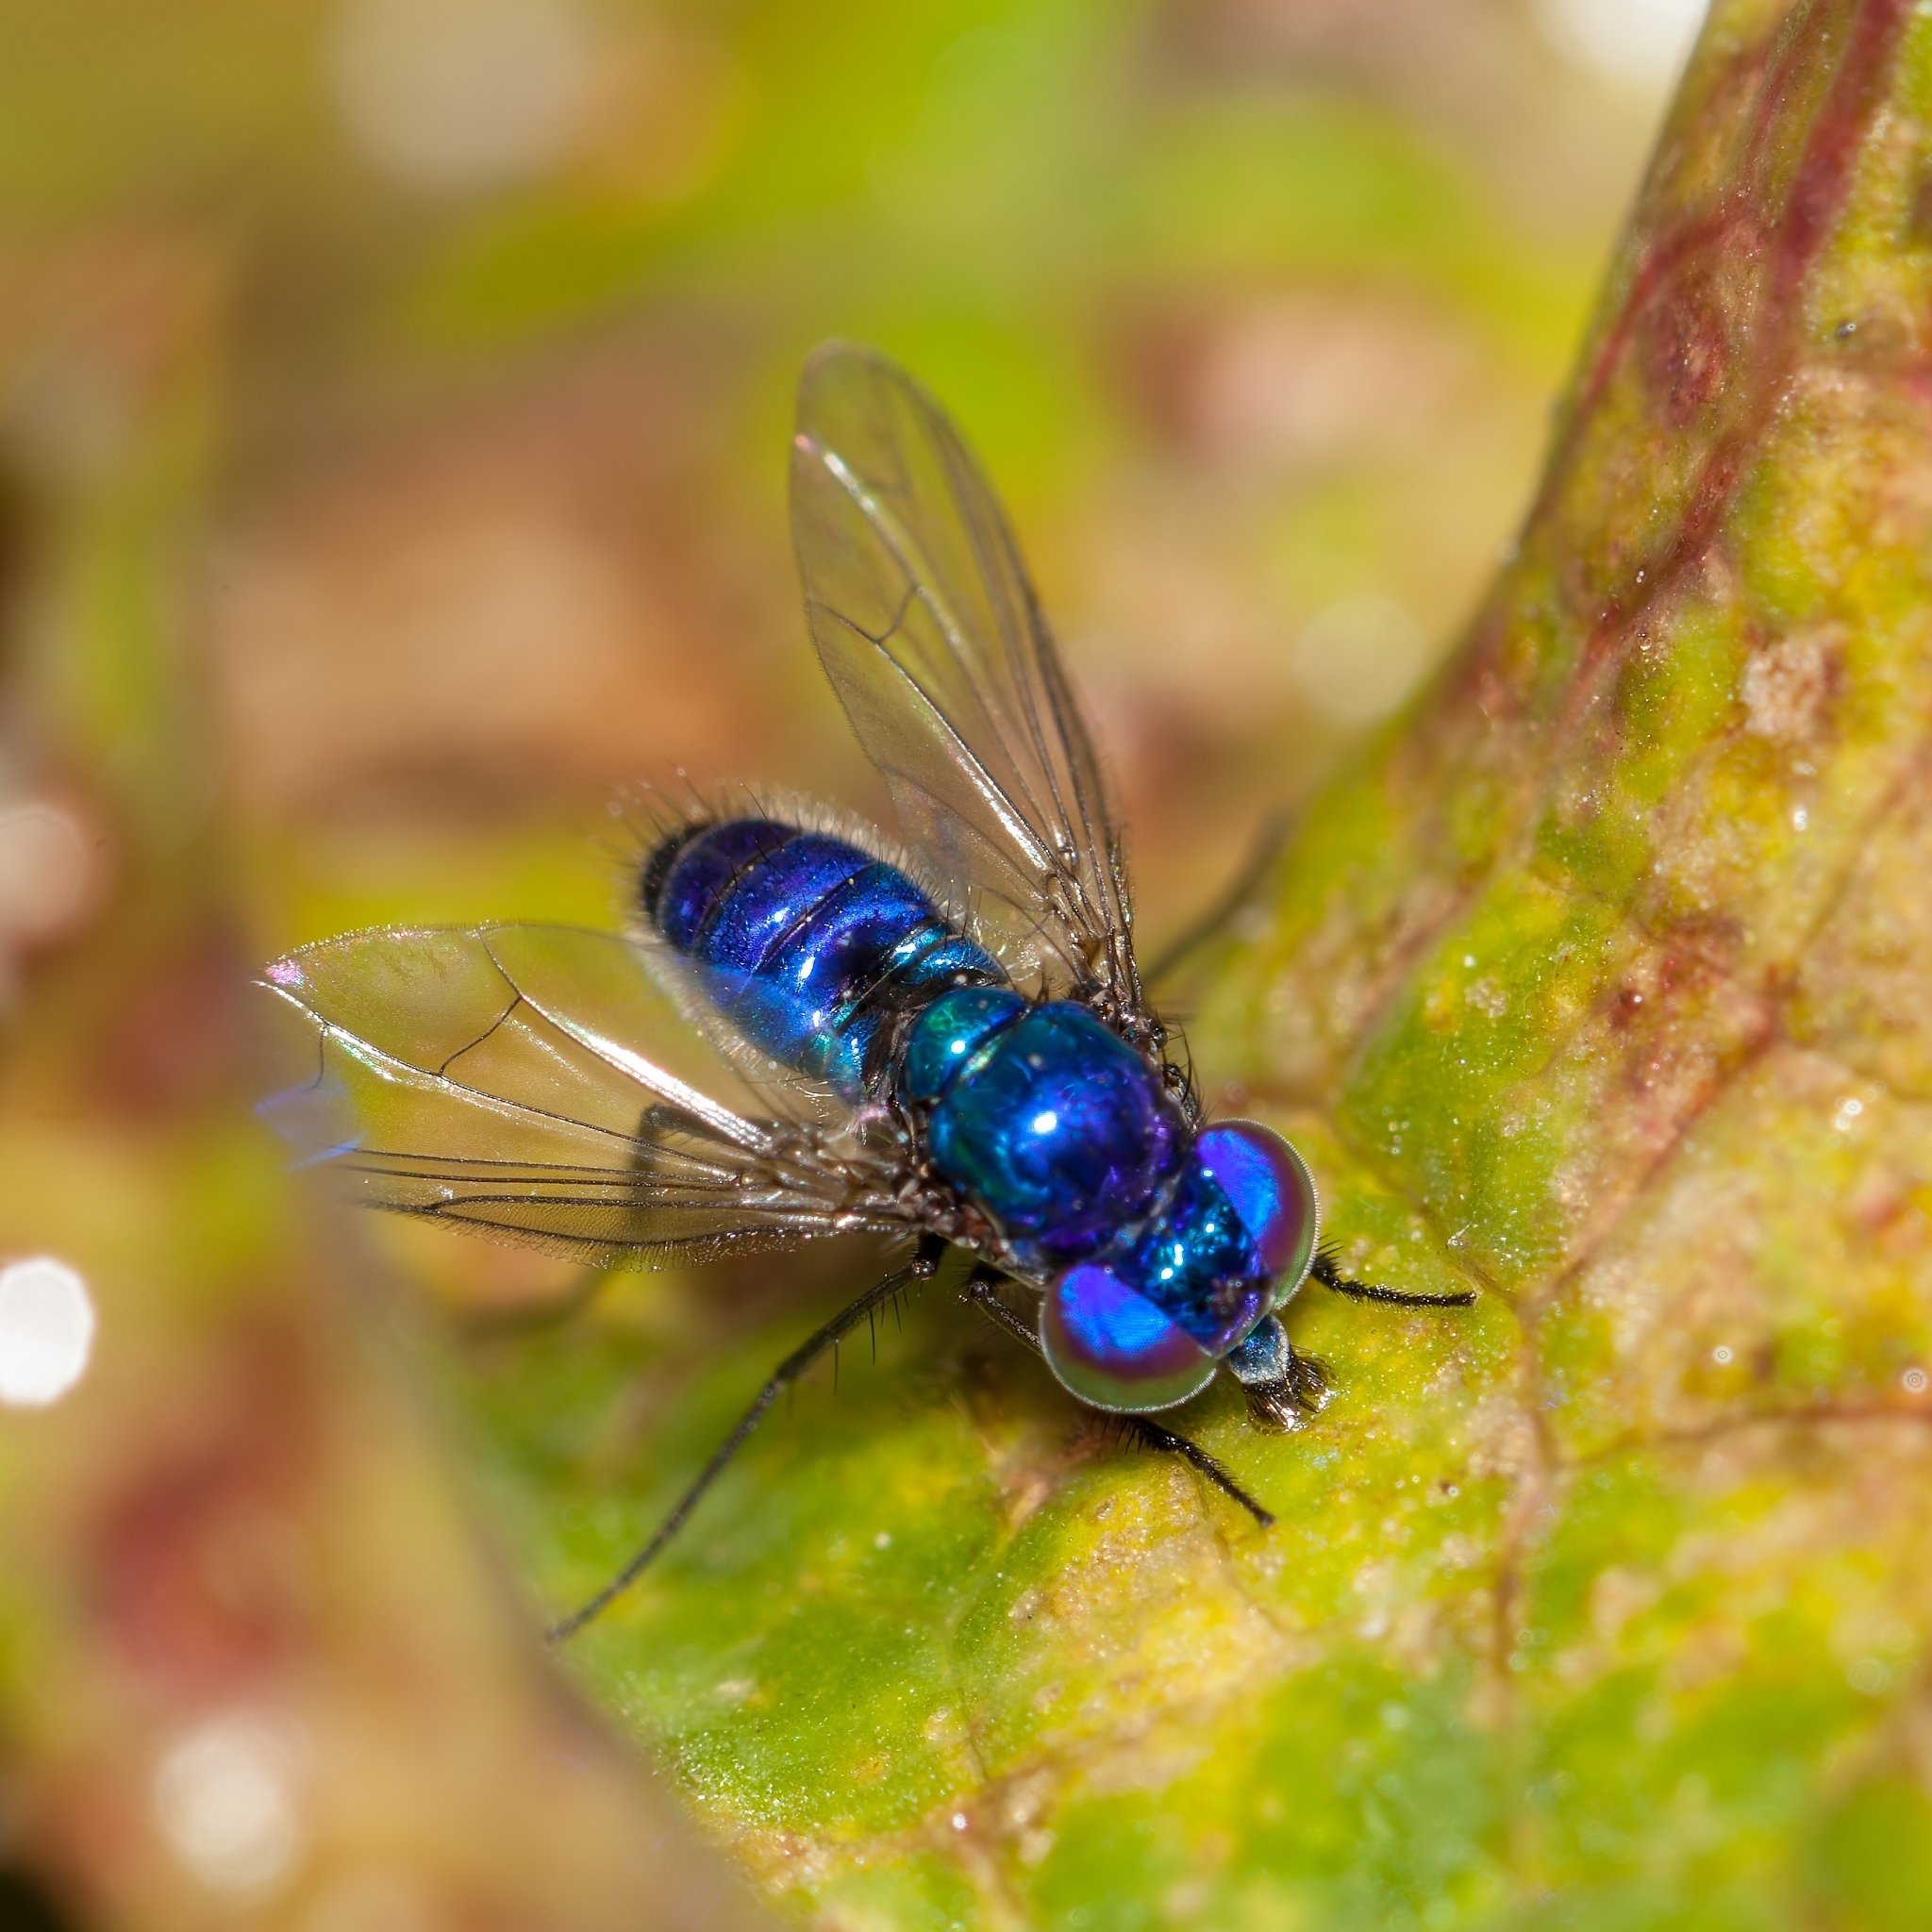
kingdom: Animalia
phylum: Arthropoda
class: Insecta
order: Diptera
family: Dolichopodidae
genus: Condylostylus
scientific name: Condylostylus mundus
